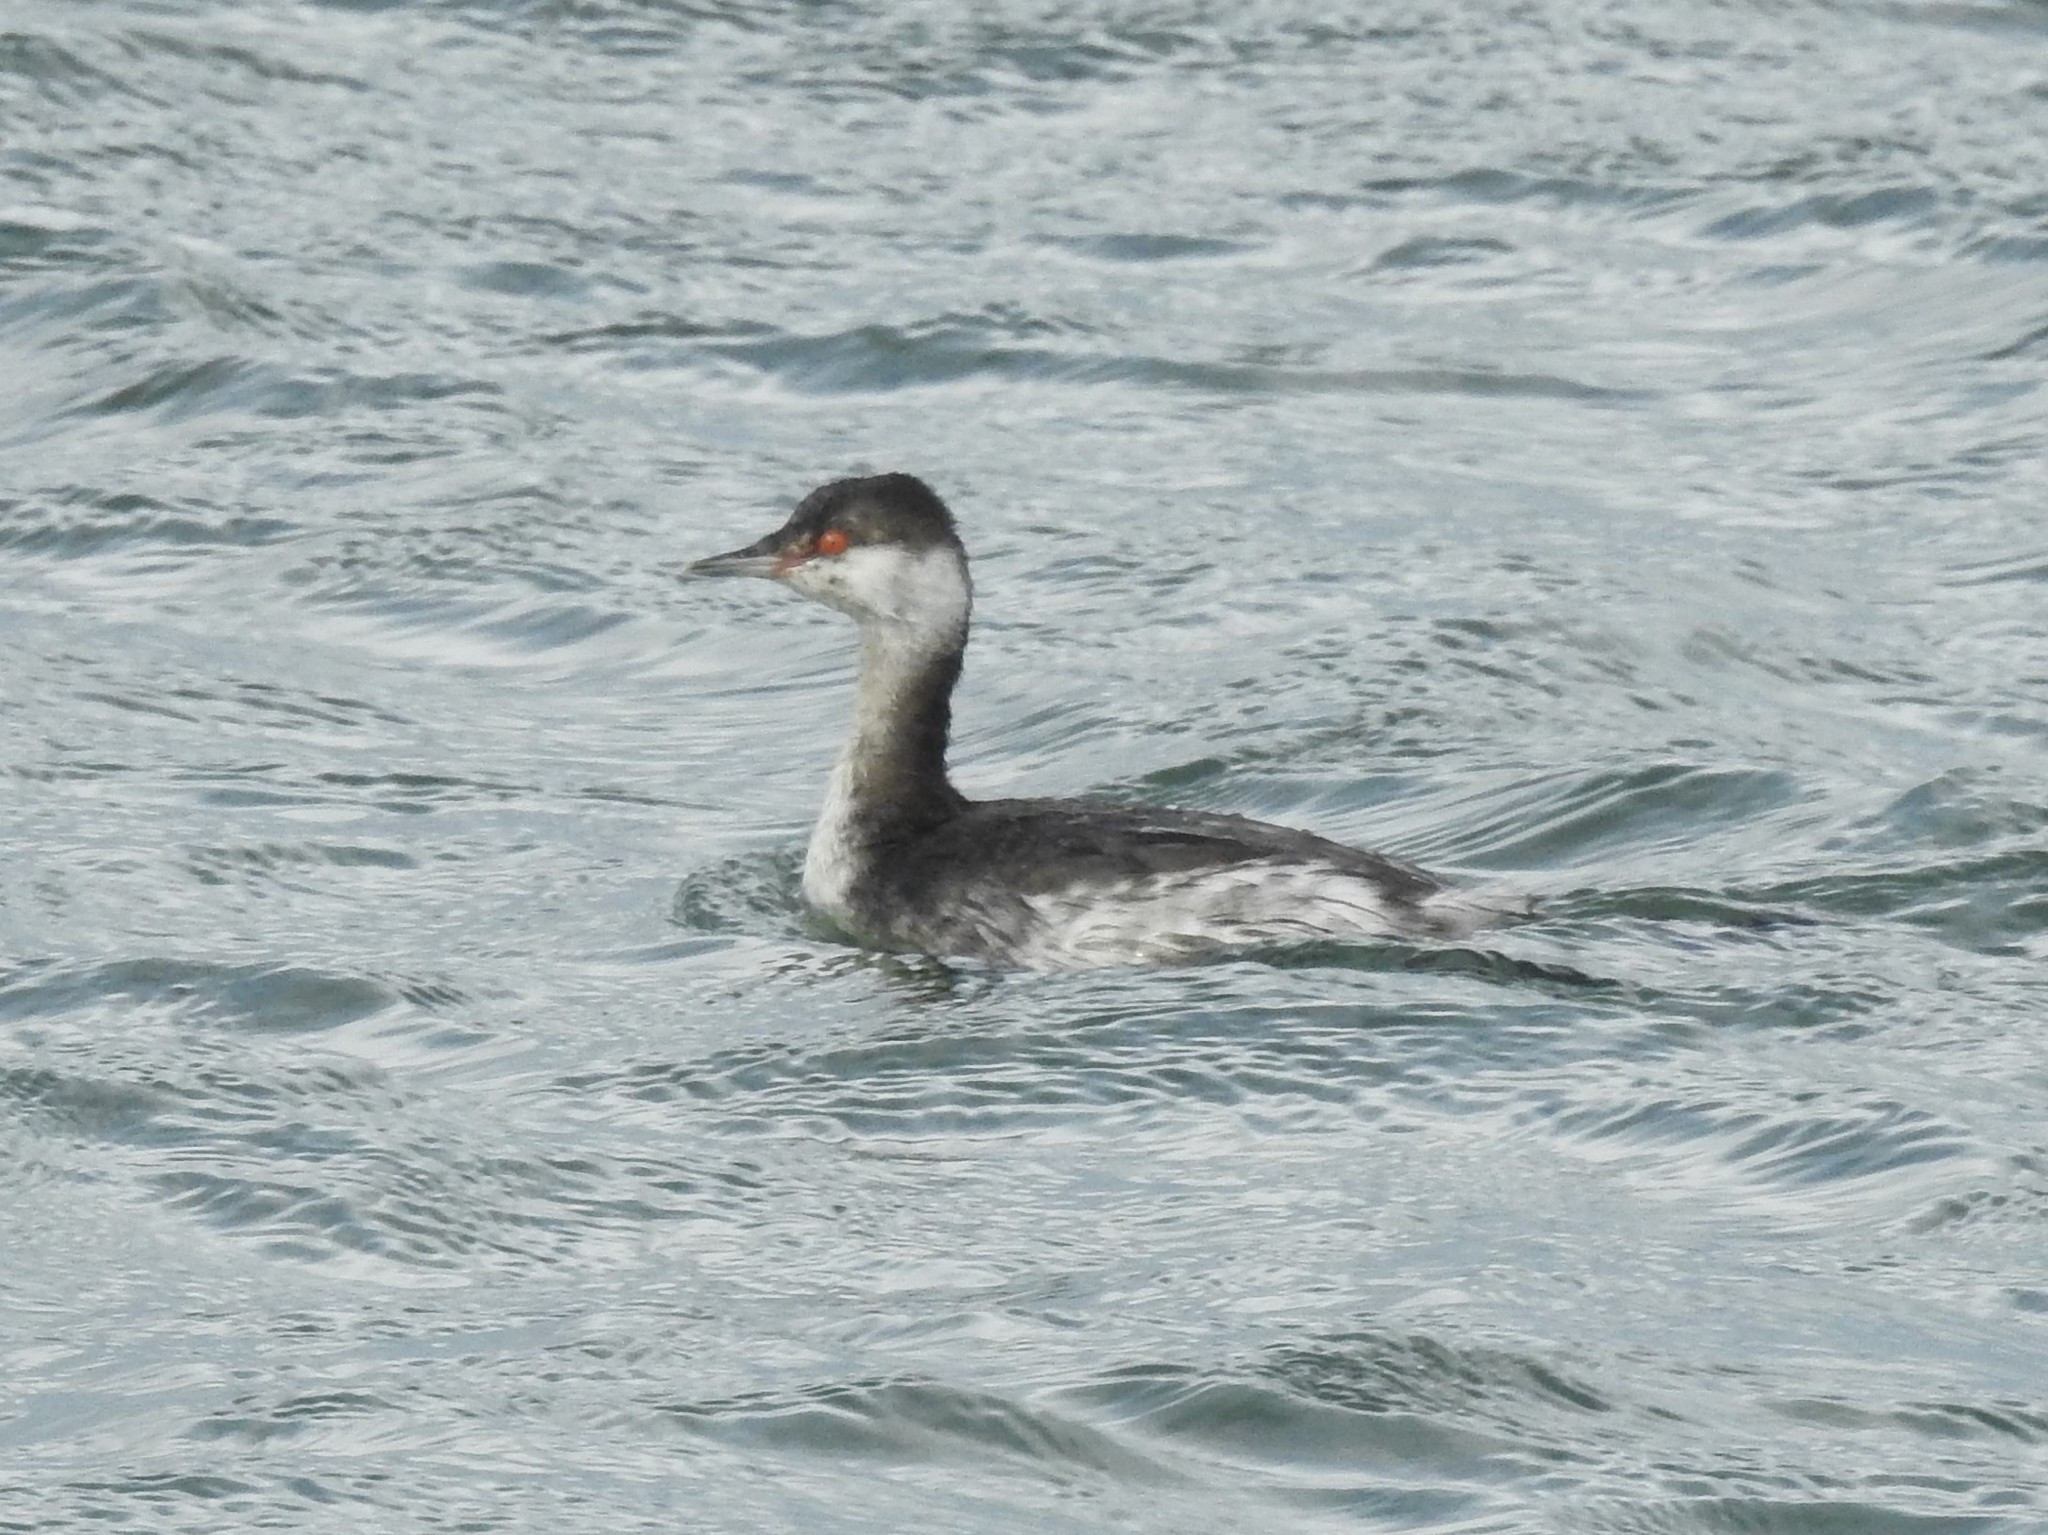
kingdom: Animalia
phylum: Chordata
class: Aves
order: Podicipediformes
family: Podicipedidae
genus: Podiceps
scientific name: Podiceps auritus
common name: Horned grebe
